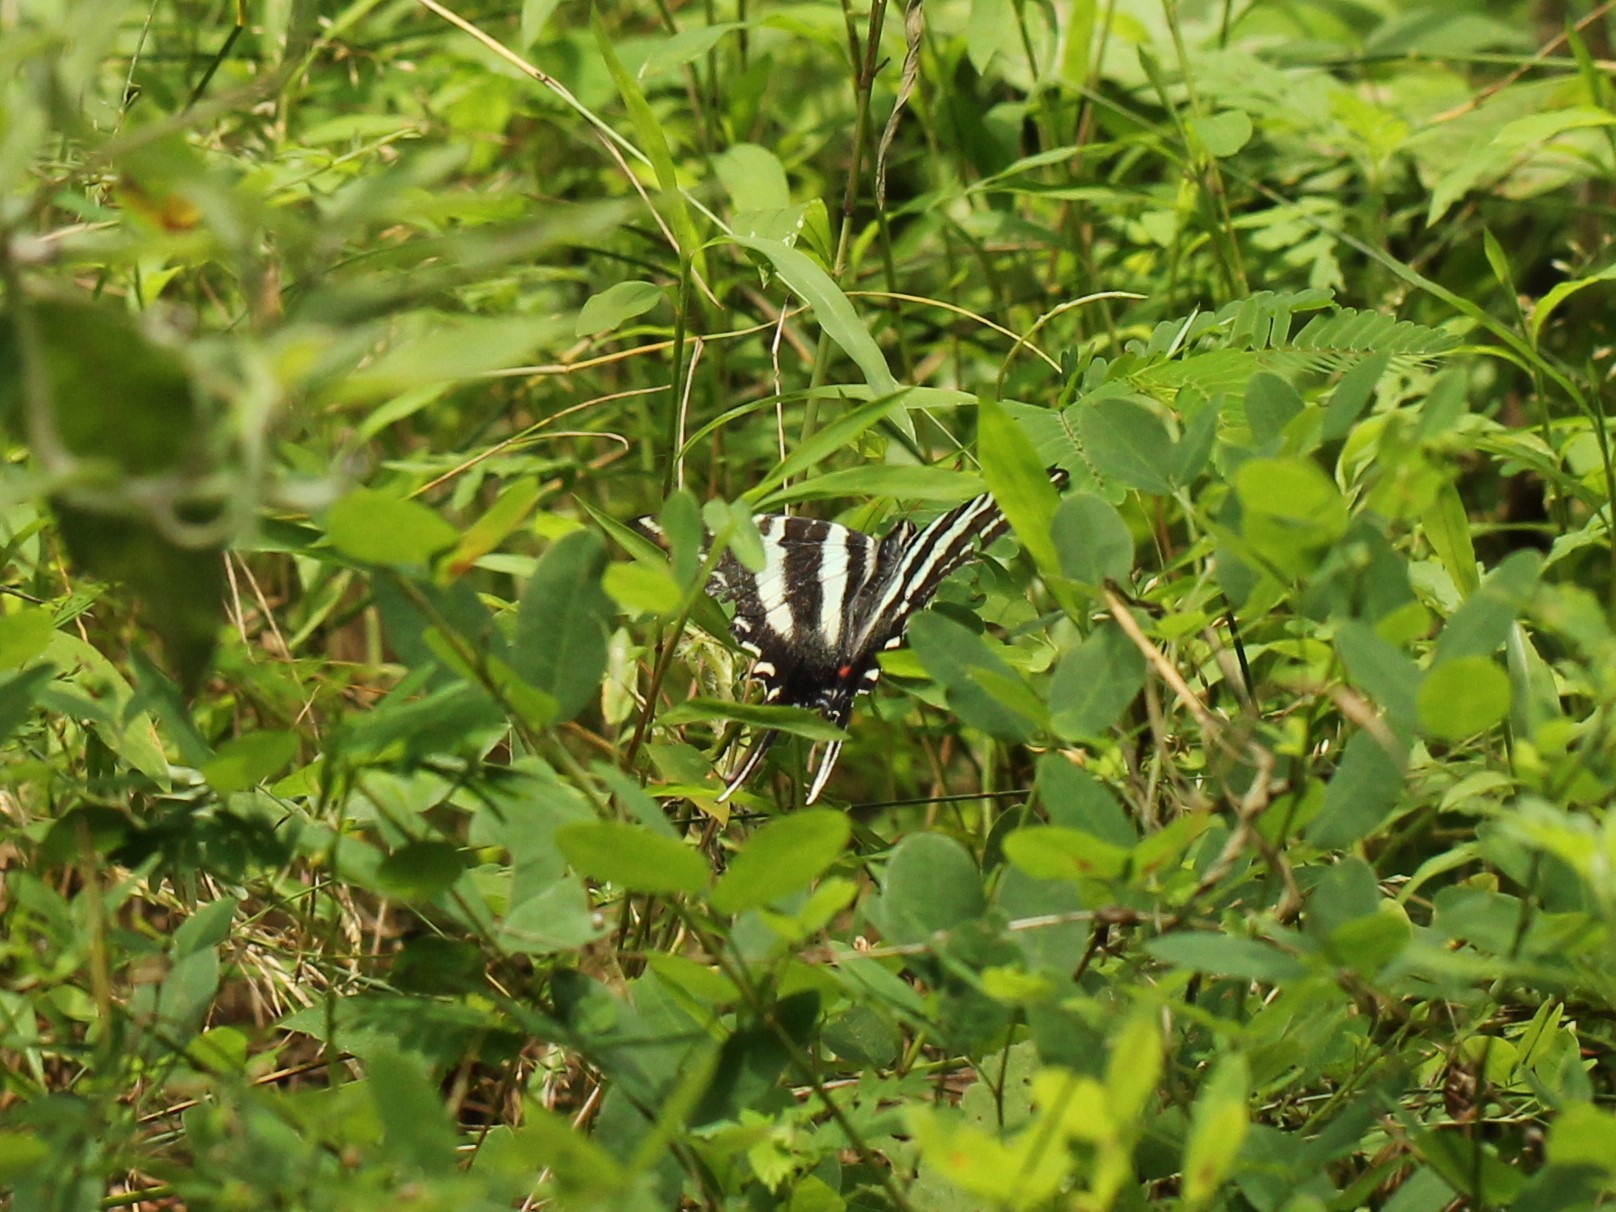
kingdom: Animalia
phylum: Arthropoda
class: Insecta
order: Lepidoptera
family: Papilionidae
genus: Protographium
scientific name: Protographium marcellus
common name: Zebra swallowtail
